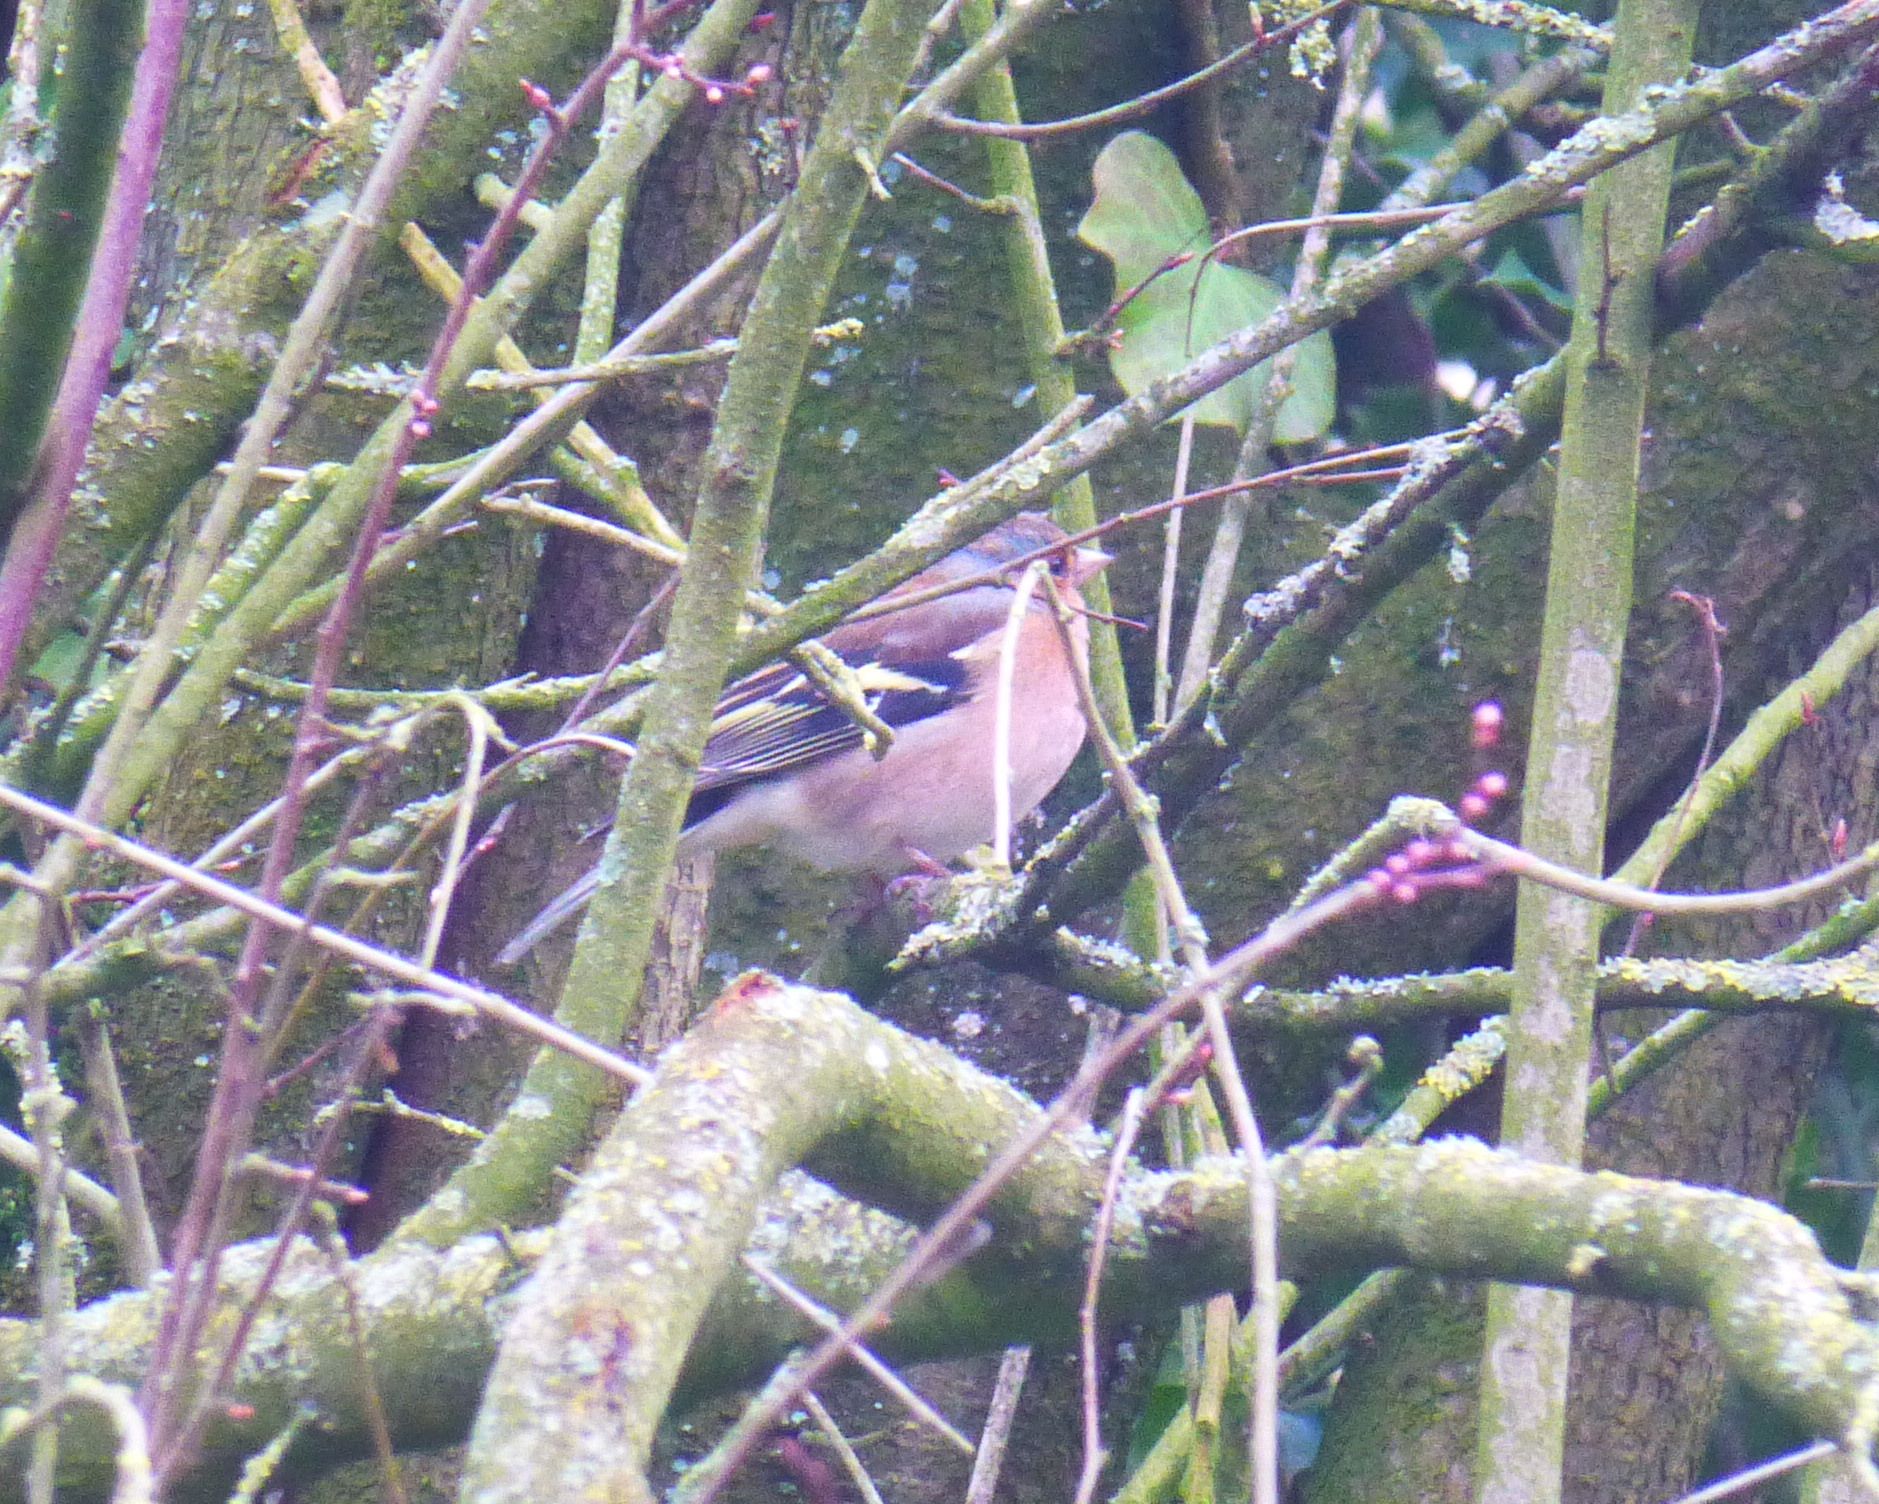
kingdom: Animalia
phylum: Chordata
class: Aves
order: Passeriformes
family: Fringillidae
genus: Fringilla
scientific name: Fringilla coelebs
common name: Common chaffinch
